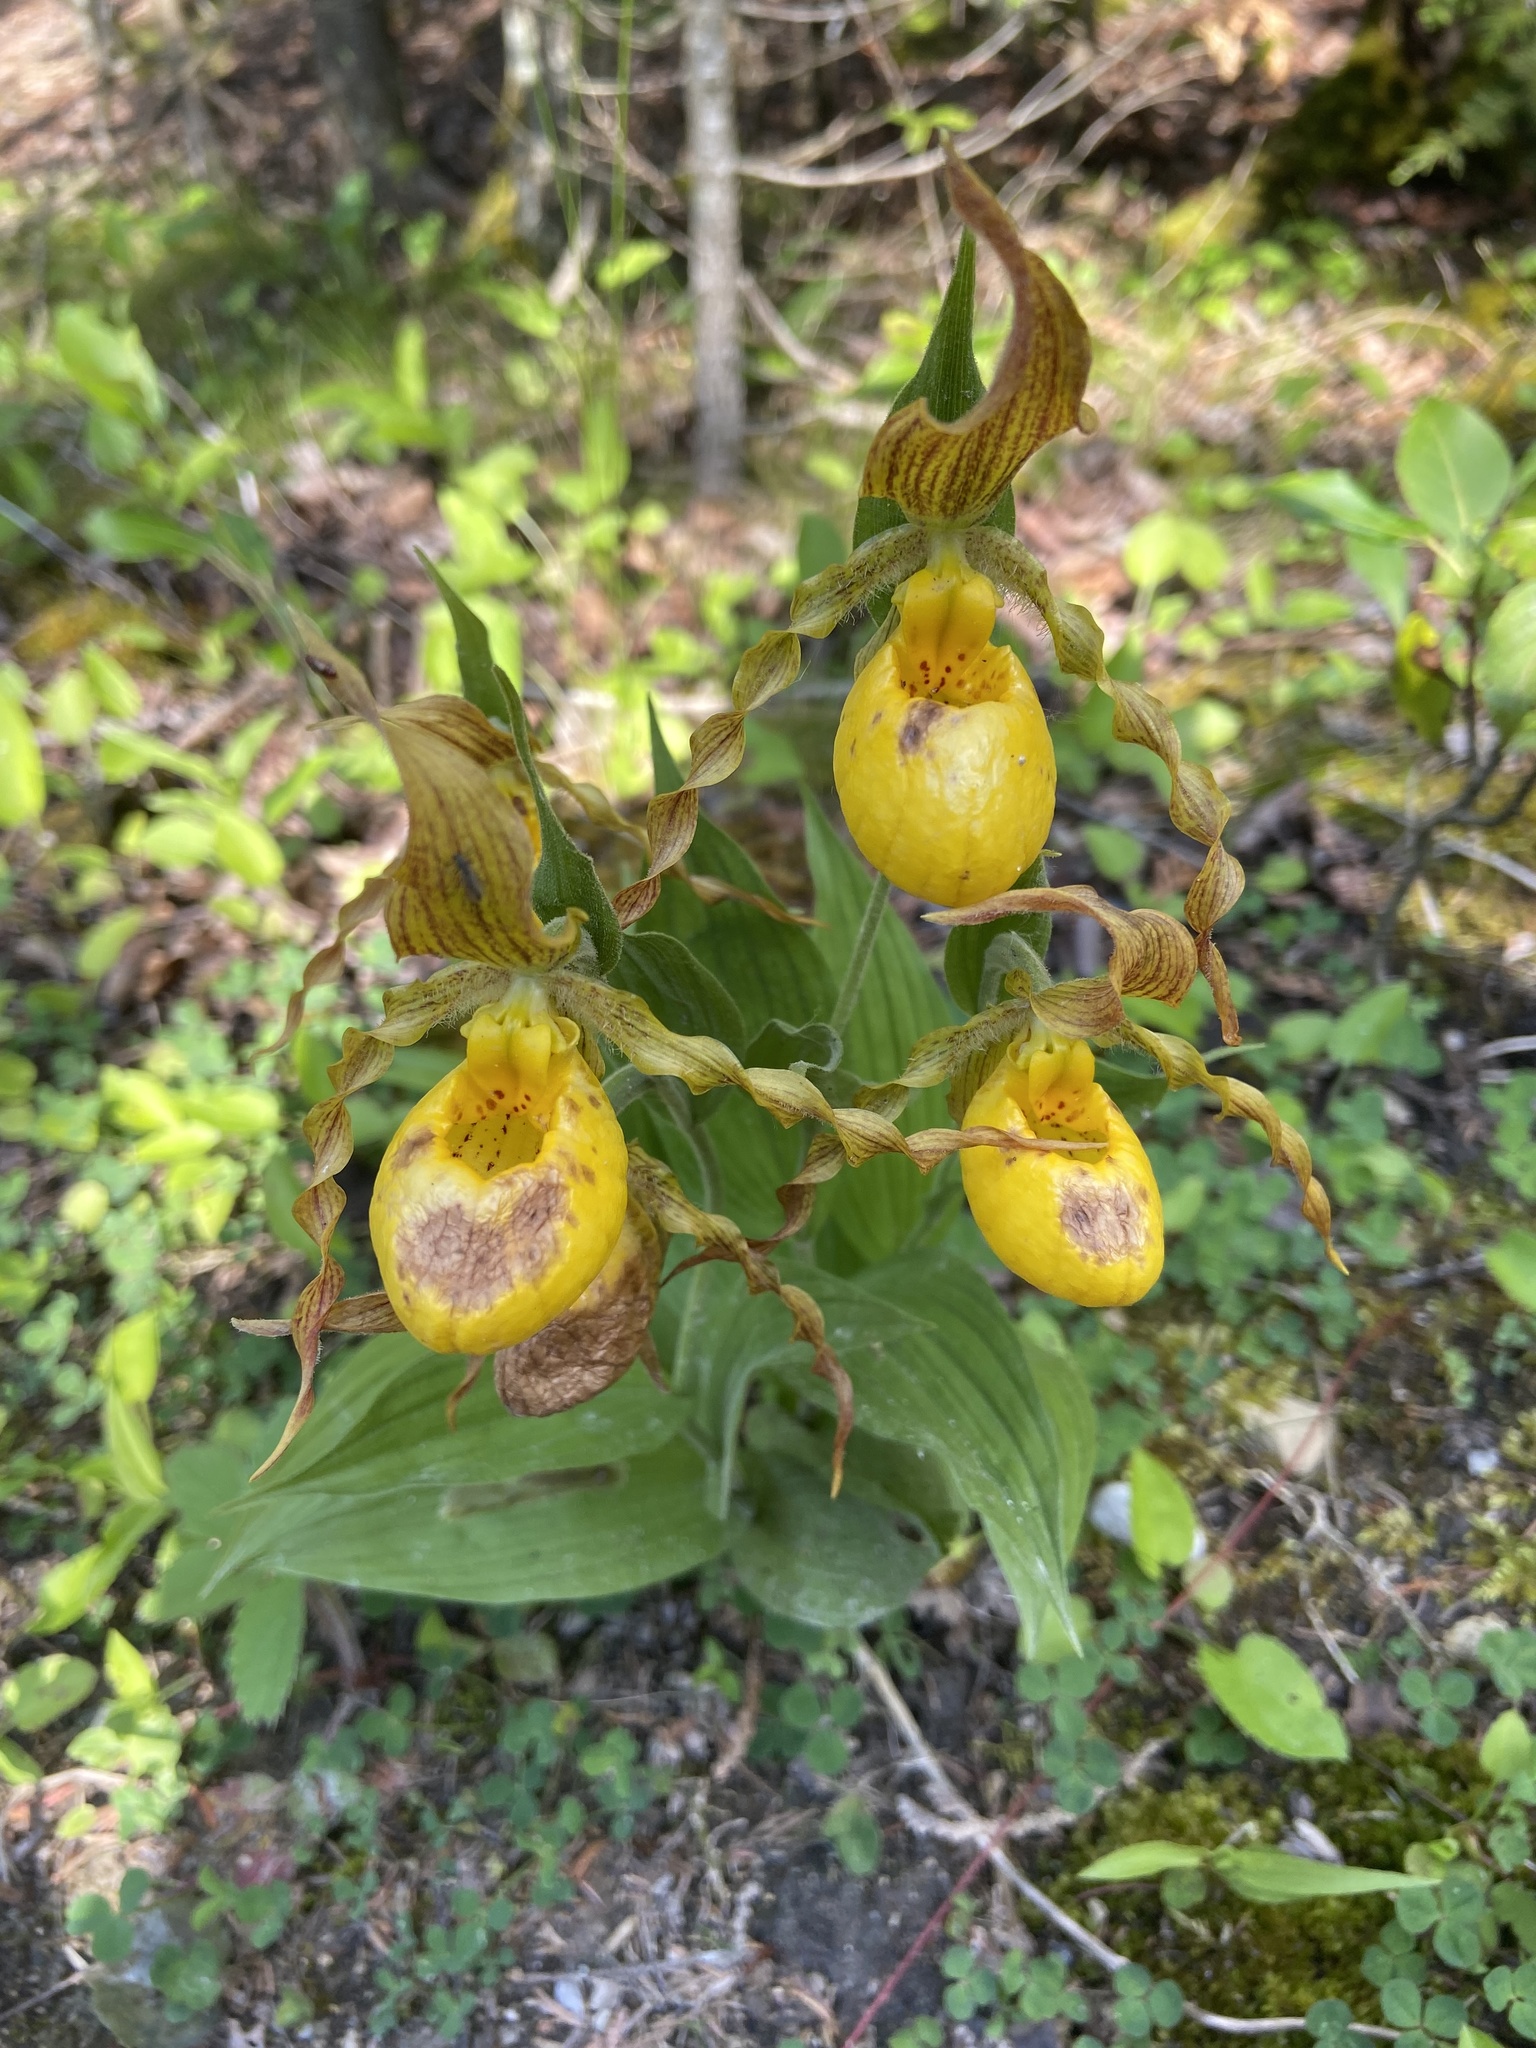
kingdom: Plantae
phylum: Tracheophyta
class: Liliopsida
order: Asparagales
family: Orchidaceae
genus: Cypripedium
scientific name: Cypripedium parviflorum
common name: American yellow lady's-slipper
